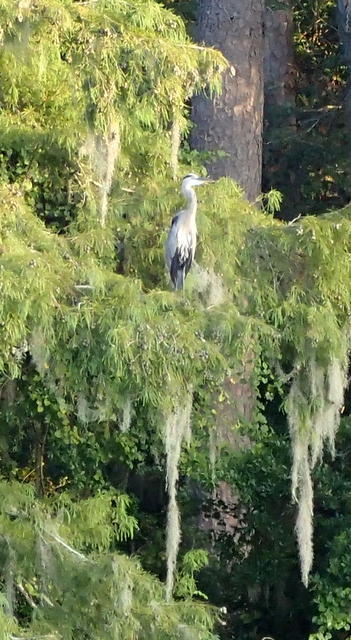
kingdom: Animalia
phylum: Chordata
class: Aves
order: Pelecaniformes
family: Ardeidae
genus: Ardea
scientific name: Ardea herodias
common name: Great blue heron
